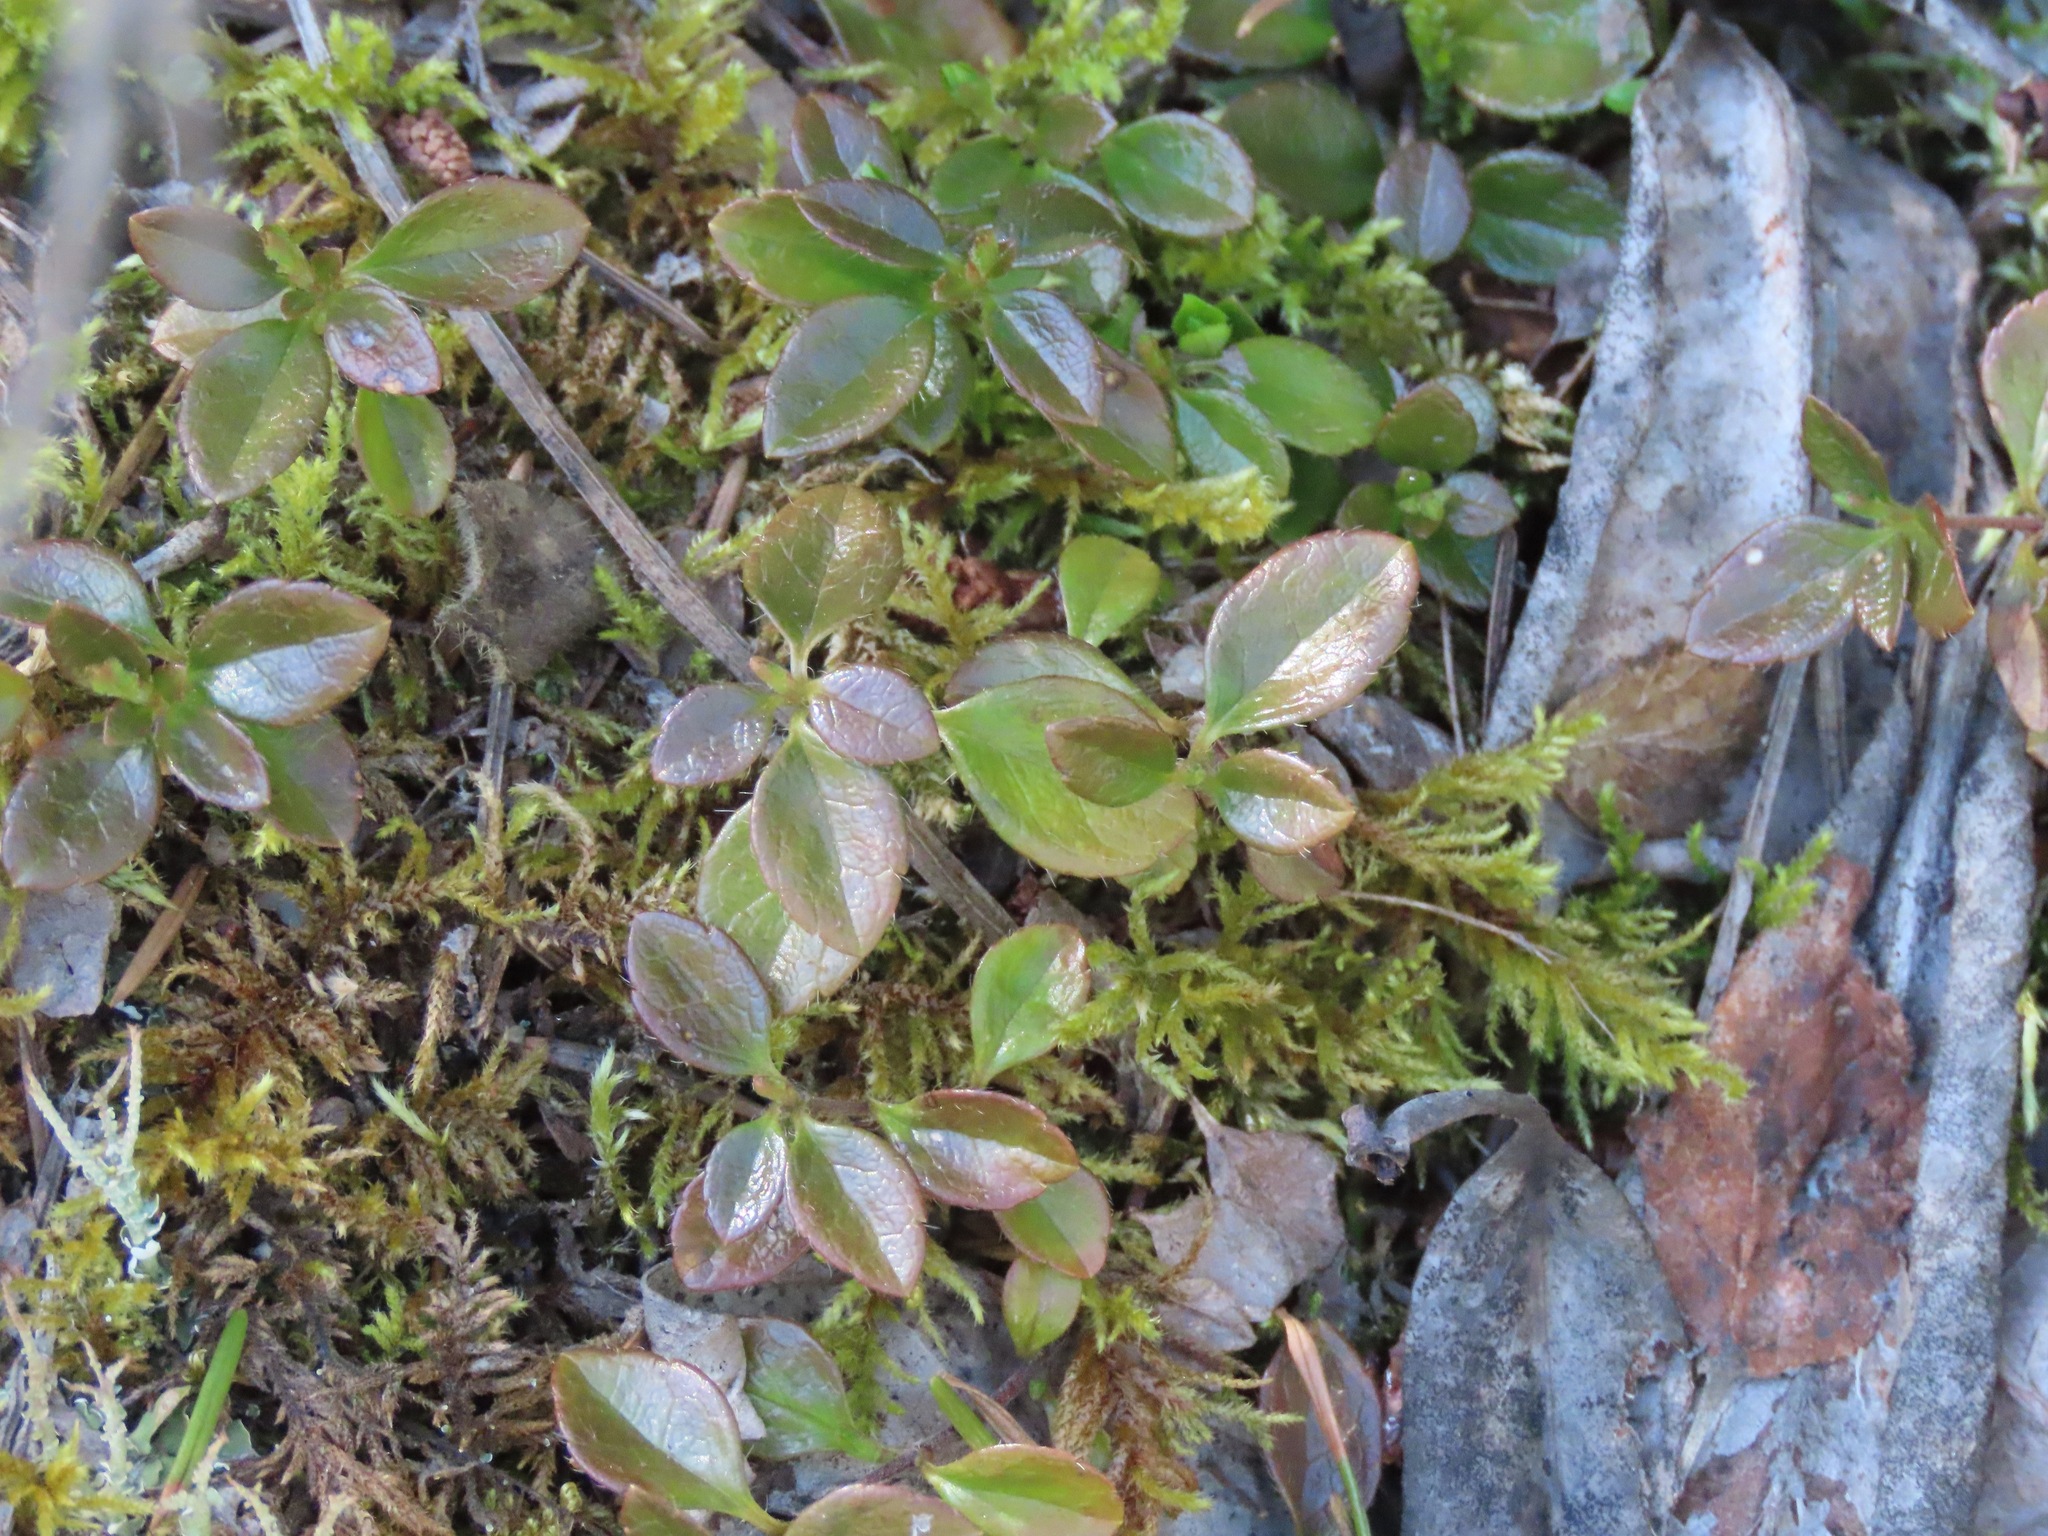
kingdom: Plantae
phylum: Tracheophyta
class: Magnoliopsida
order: Dipsacales
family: Caprifoliaceae
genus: Linnaea
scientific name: Linnaea borealis
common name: Twinflower
